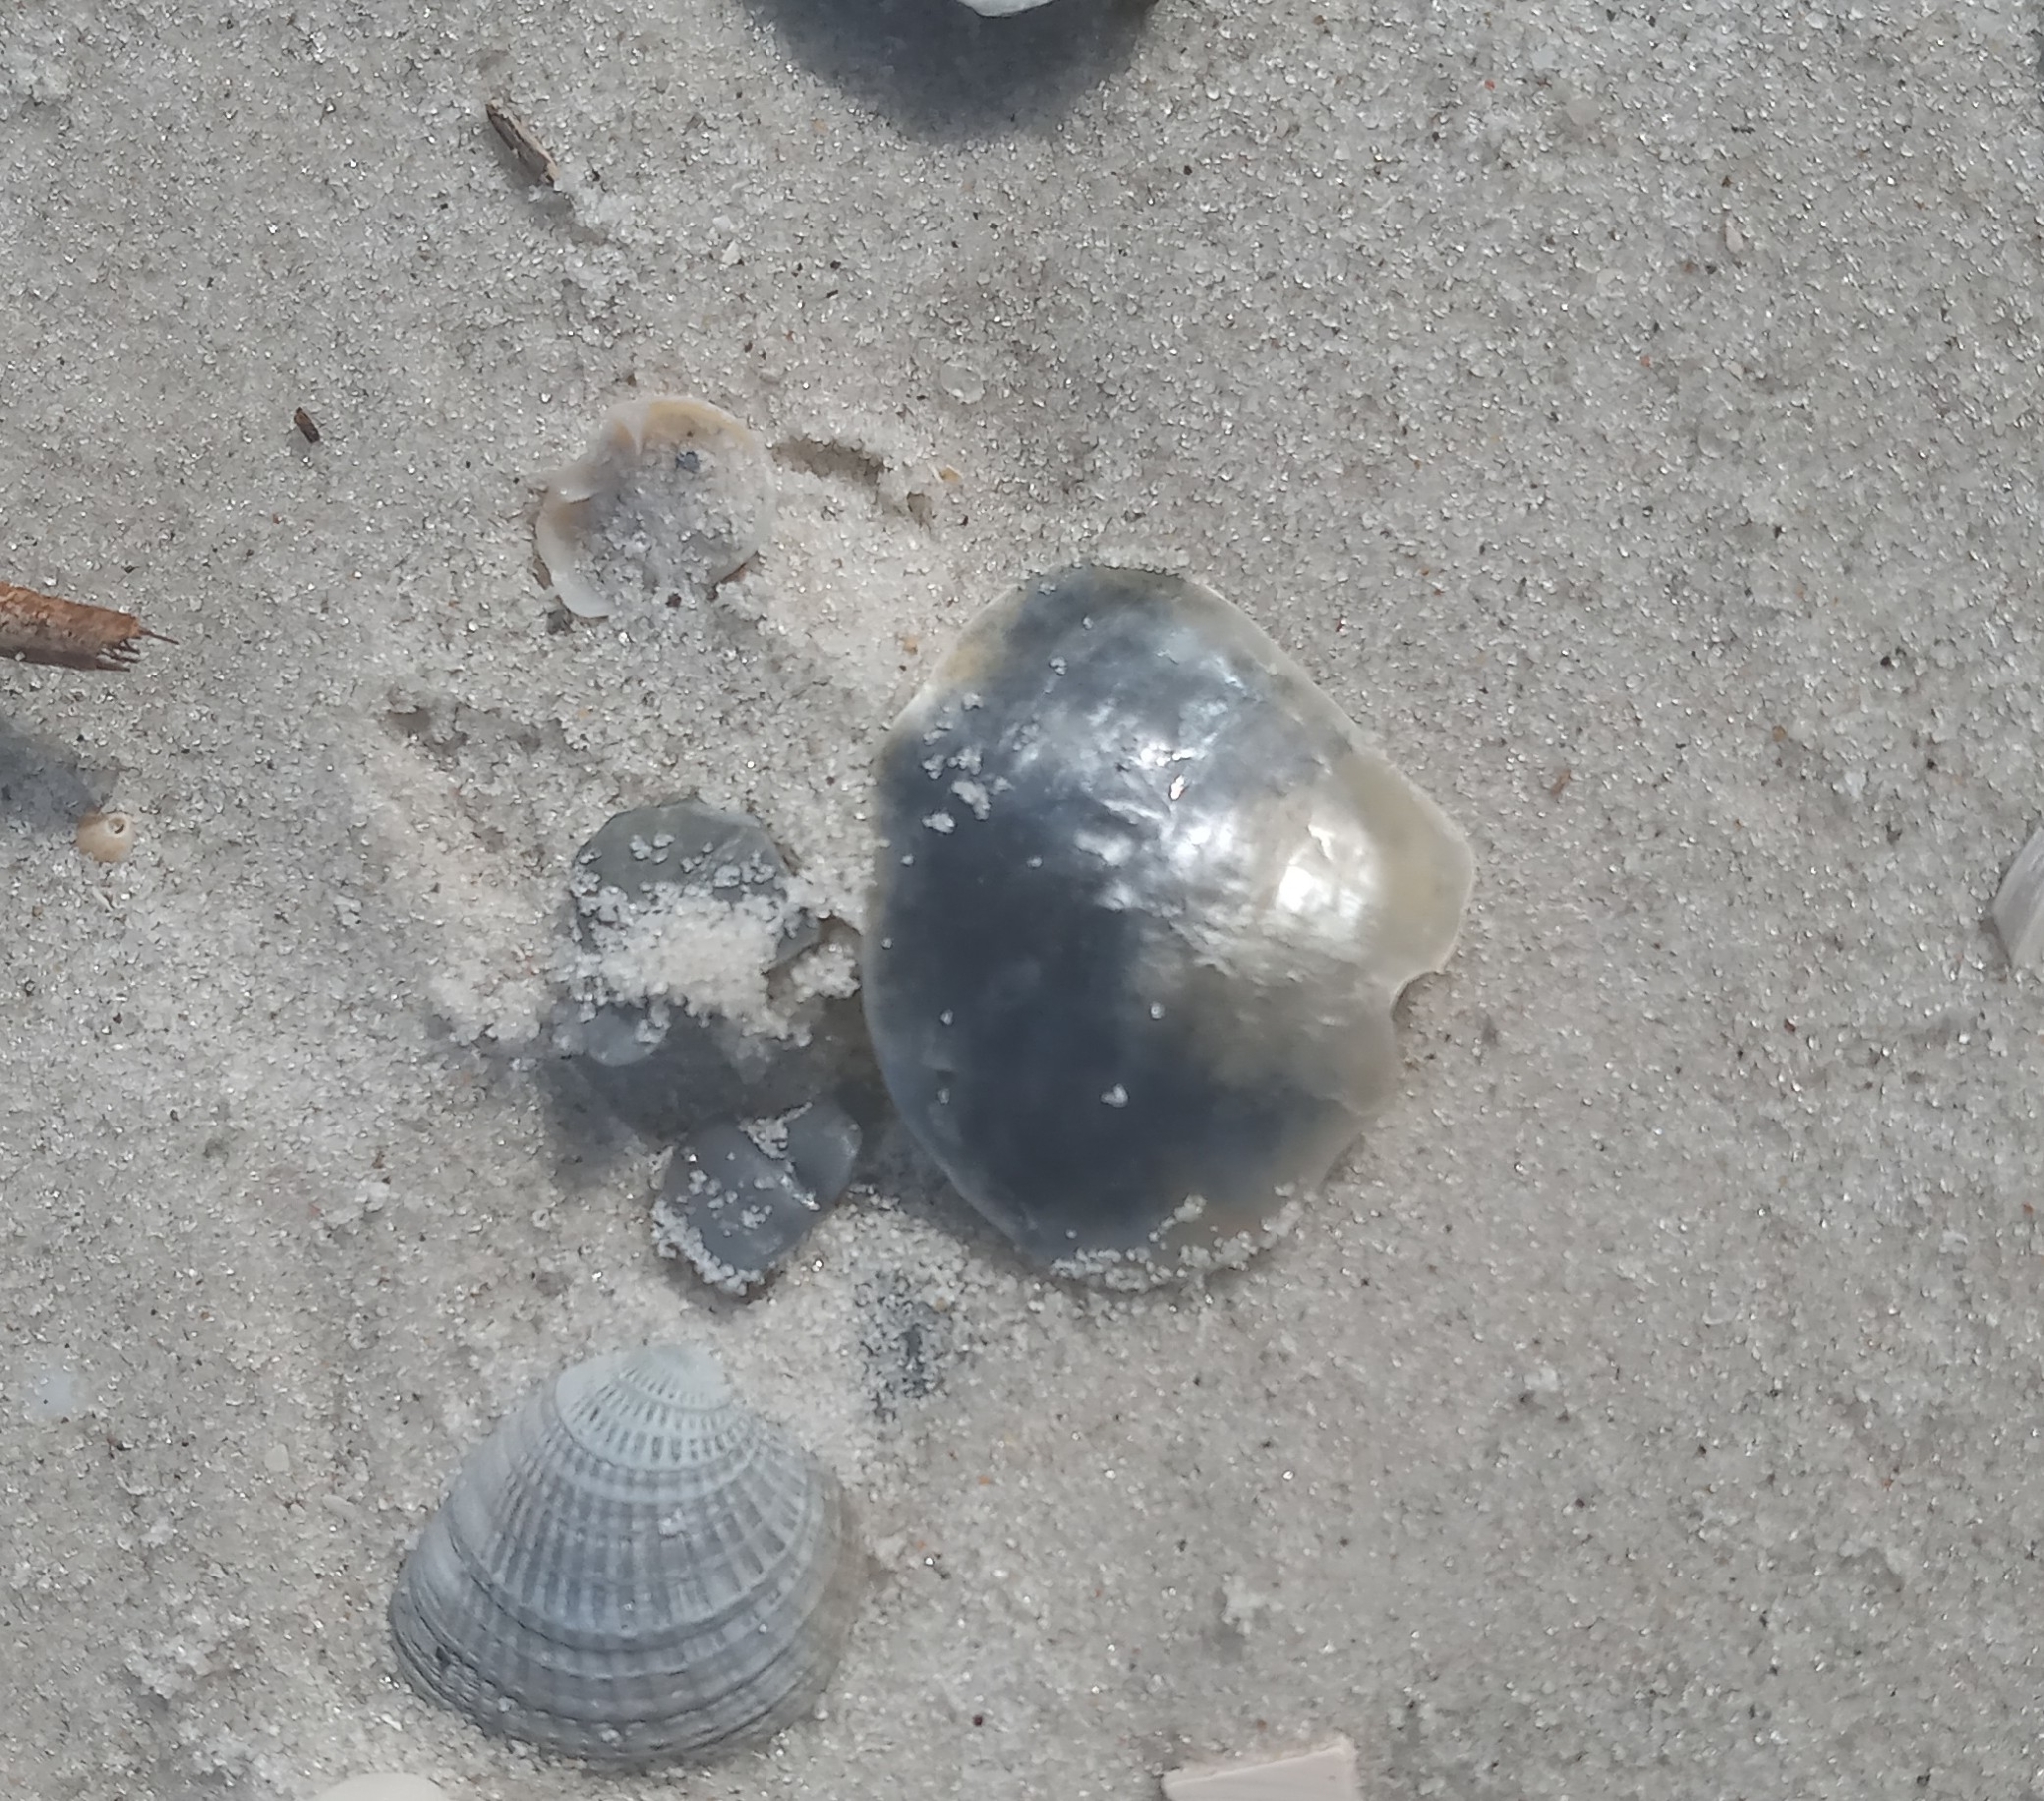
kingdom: Animalia
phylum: Mollusca
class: Bivalvia
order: Pectinida
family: Anomiidae
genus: Anomia
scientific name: Anomia simplex
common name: Common jingle shell
